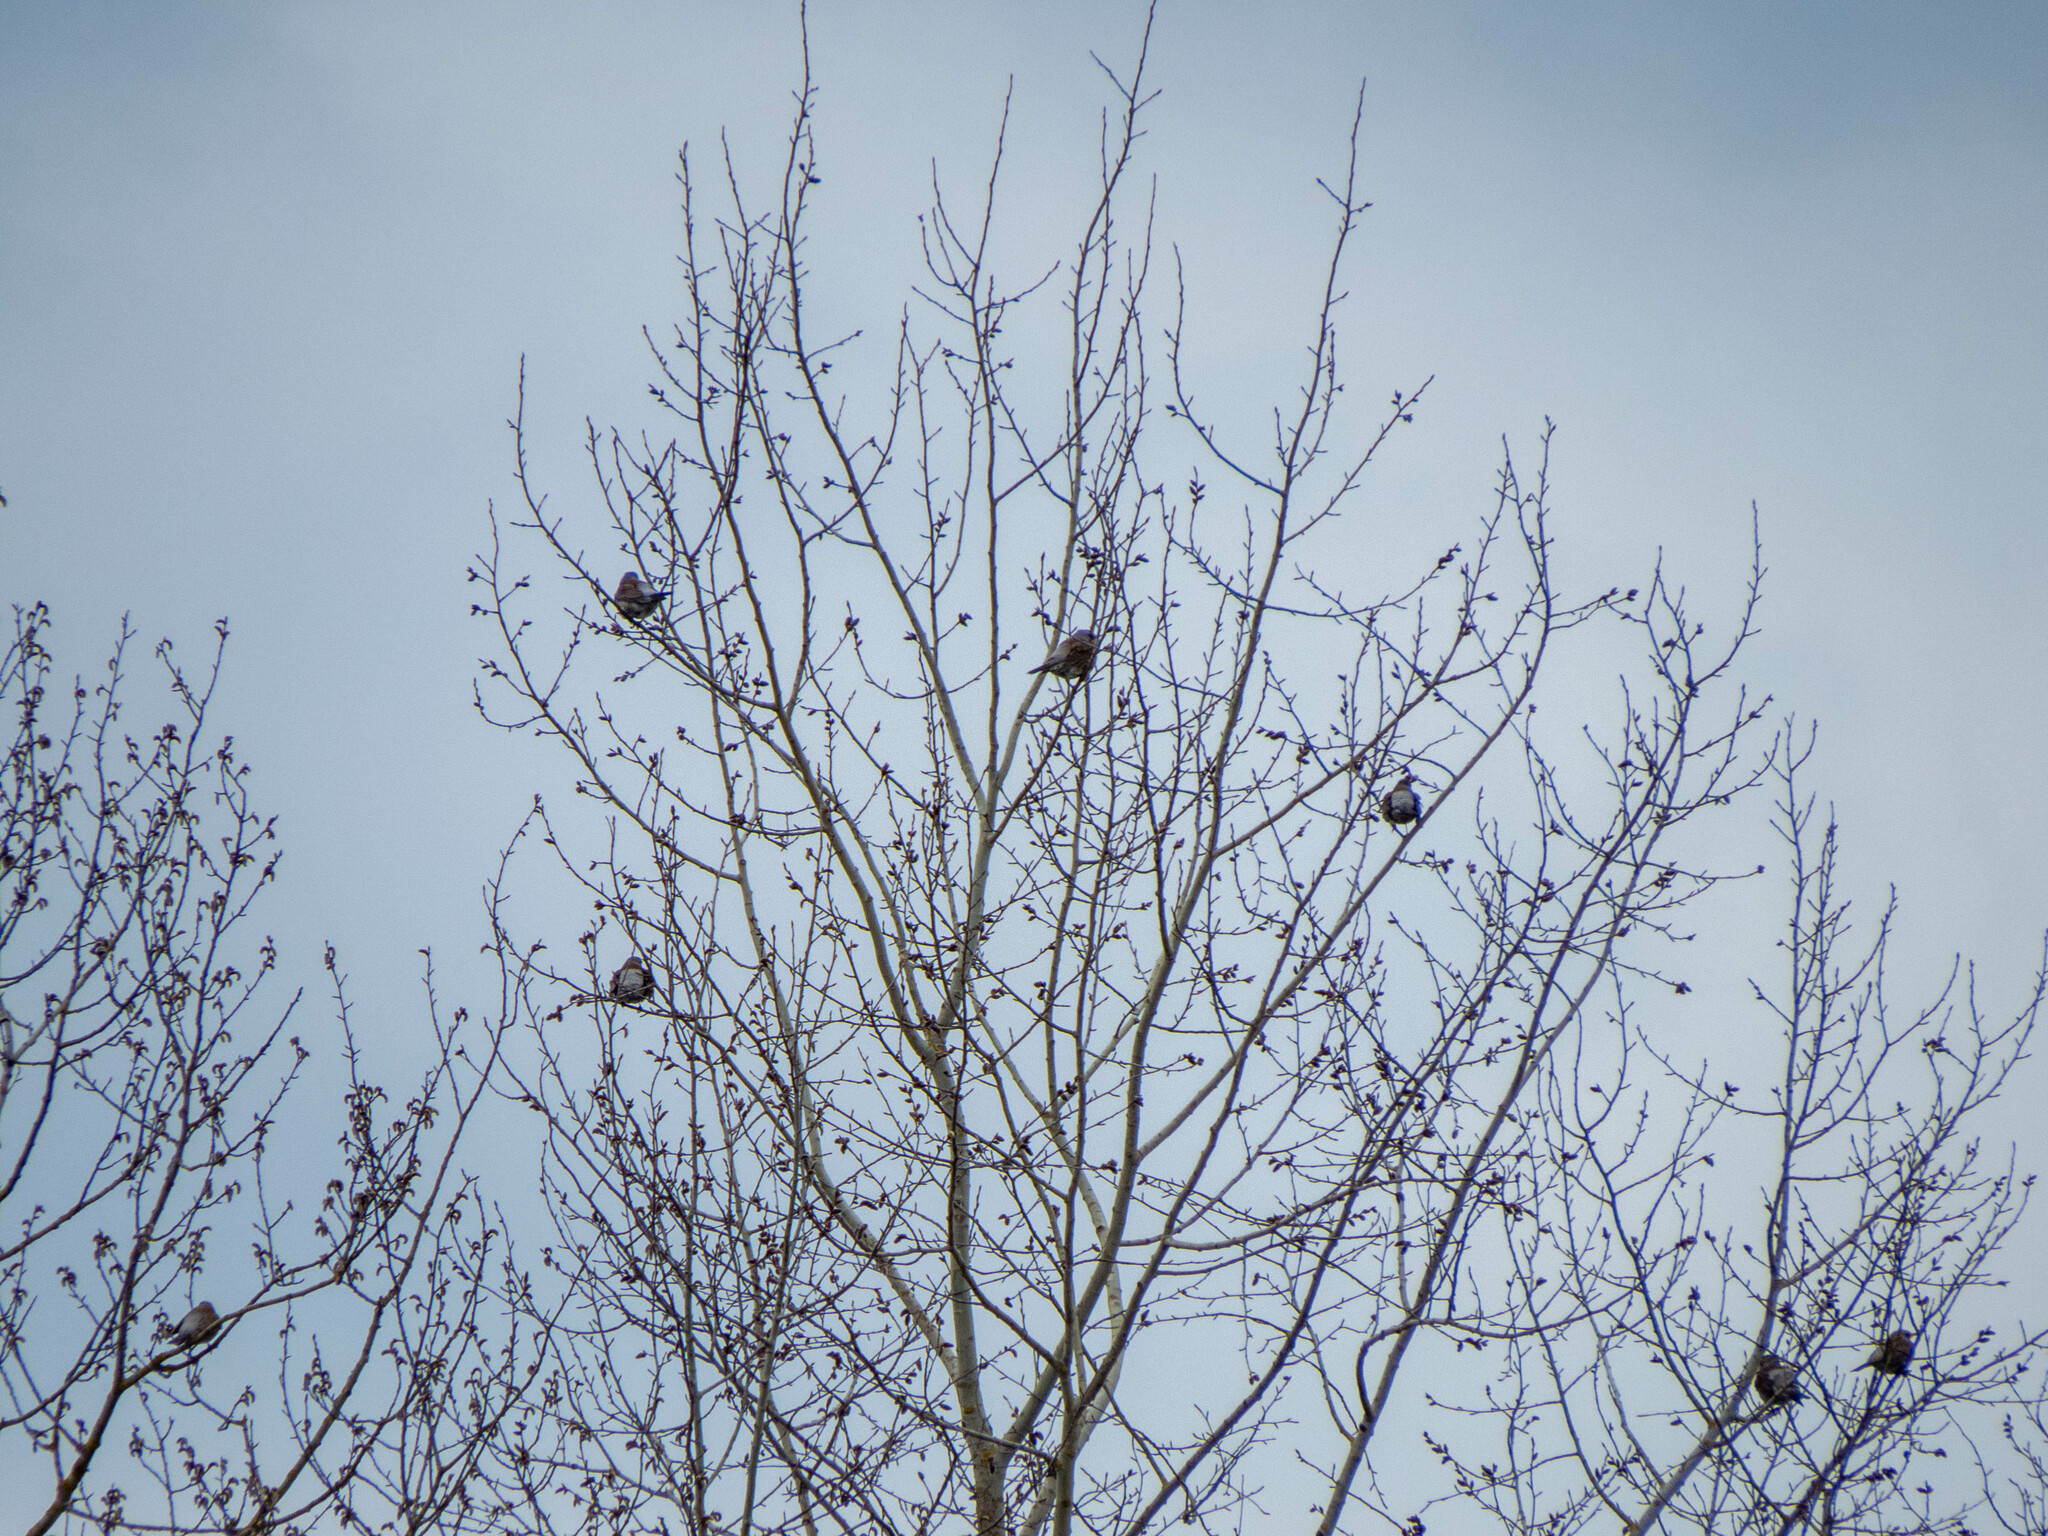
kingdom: Animalia
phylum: Chordata
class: Aves
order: Passeriformes
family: Turdidae
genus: Turdus
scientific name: Turdus pilaris
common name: Fieldfare
